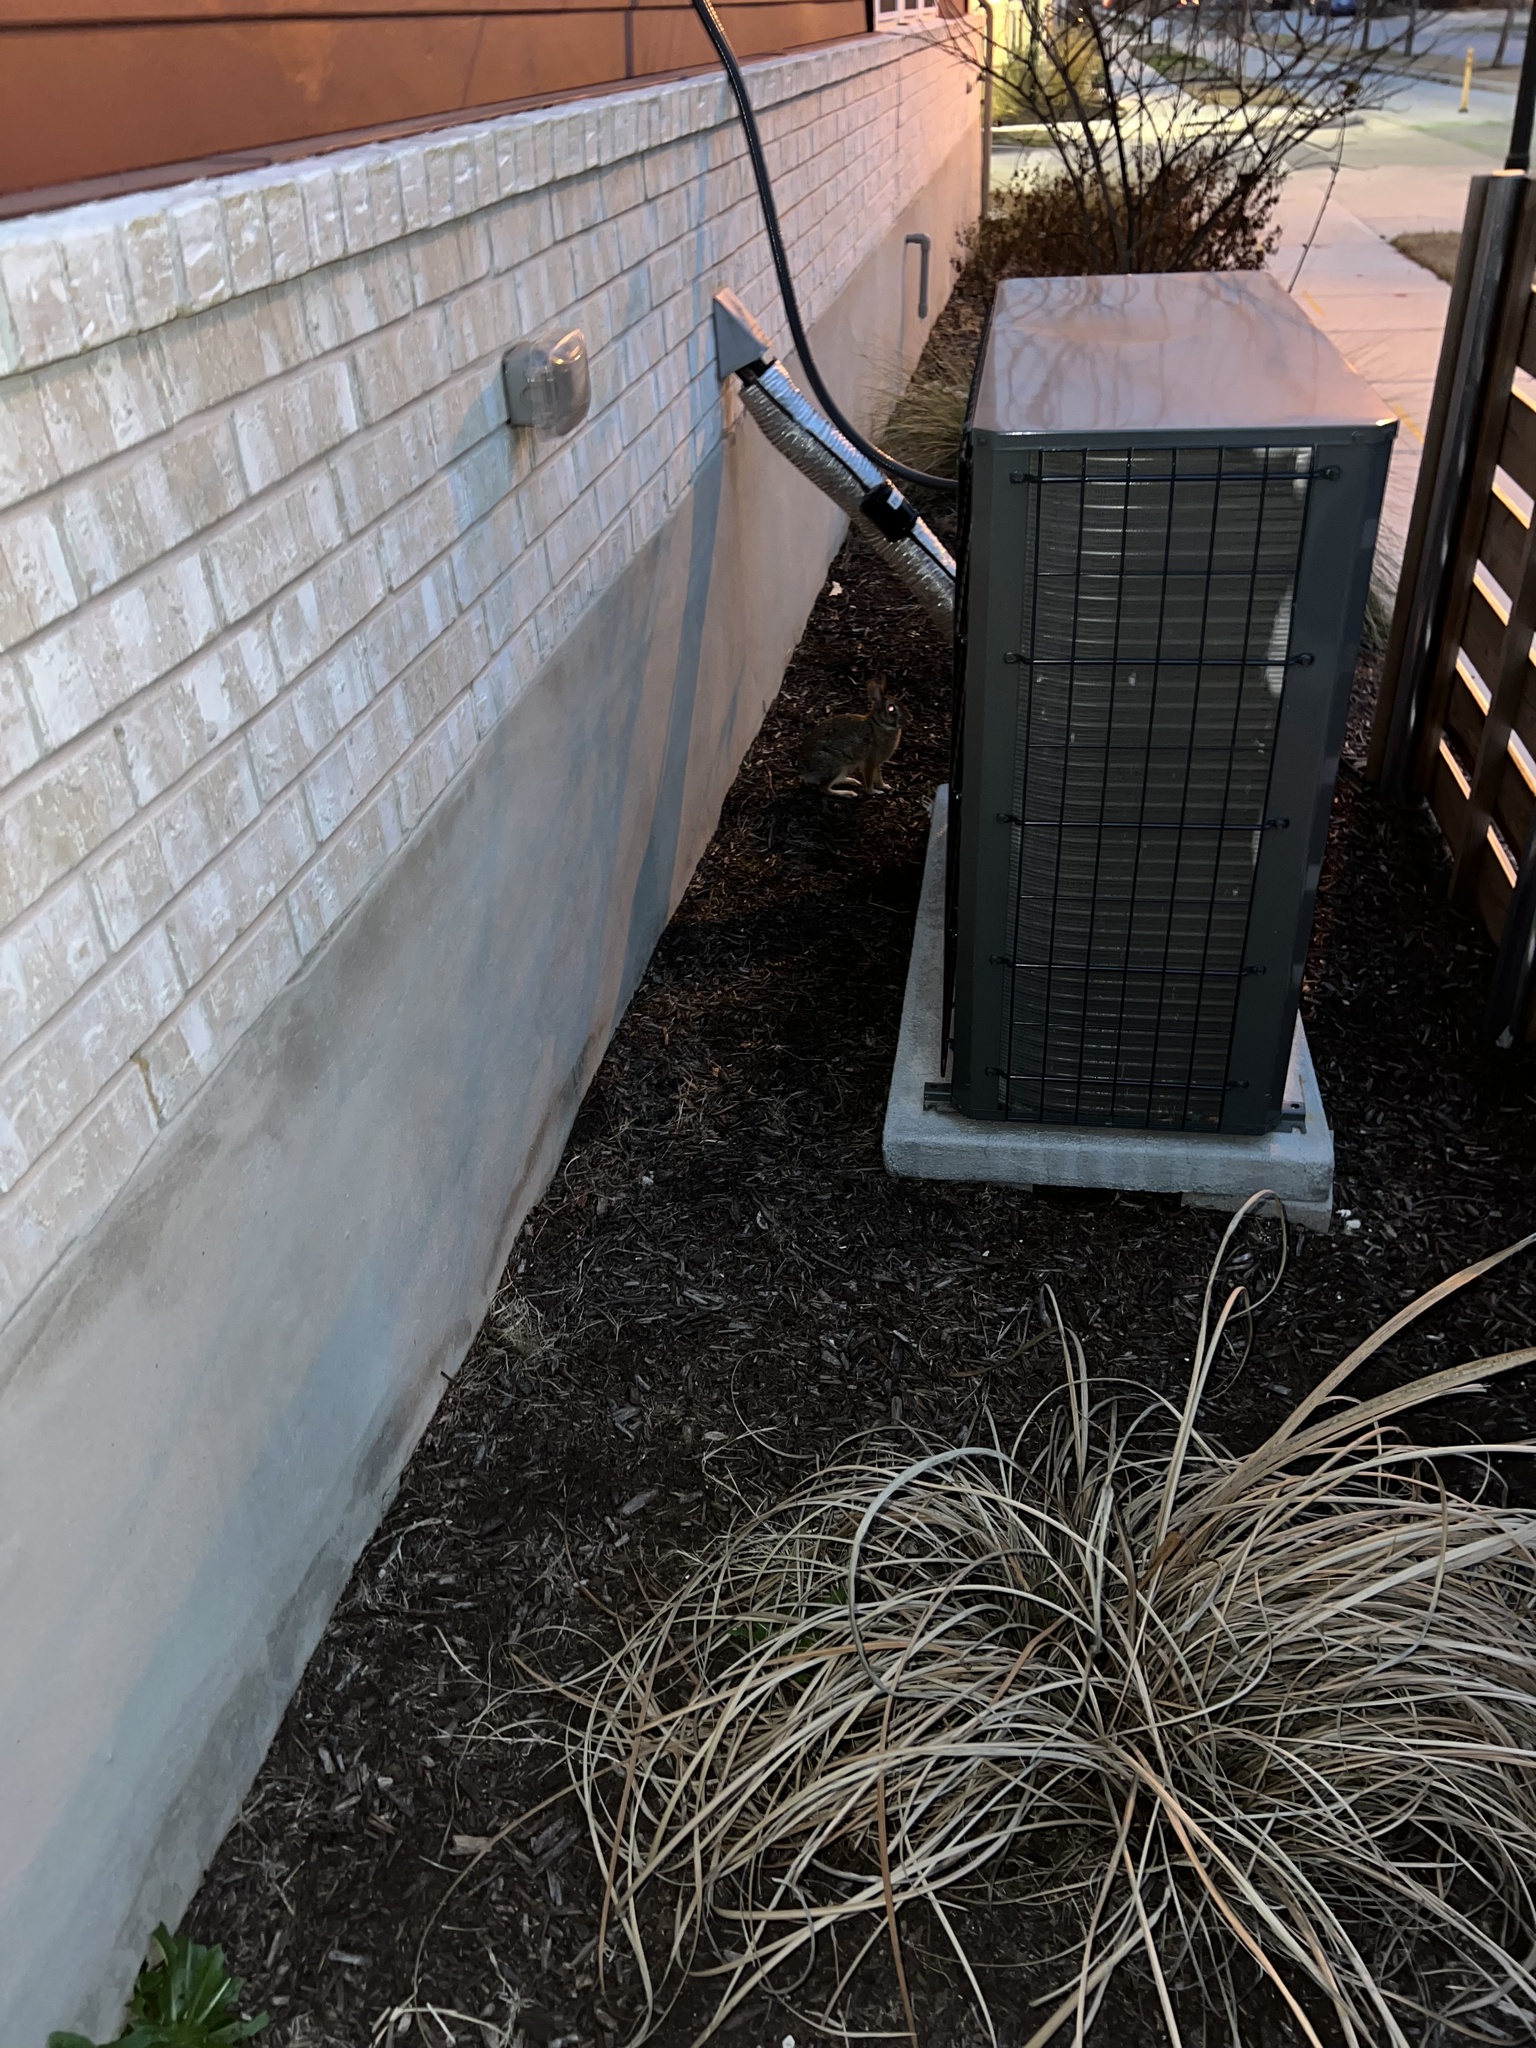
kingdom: Animalia
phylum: Chordata
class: Mammalia
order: Lagomorpha
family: Leporidae
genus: Sylvilagus
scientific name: Sylvilagus floridanus
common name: Eastern cottontail
